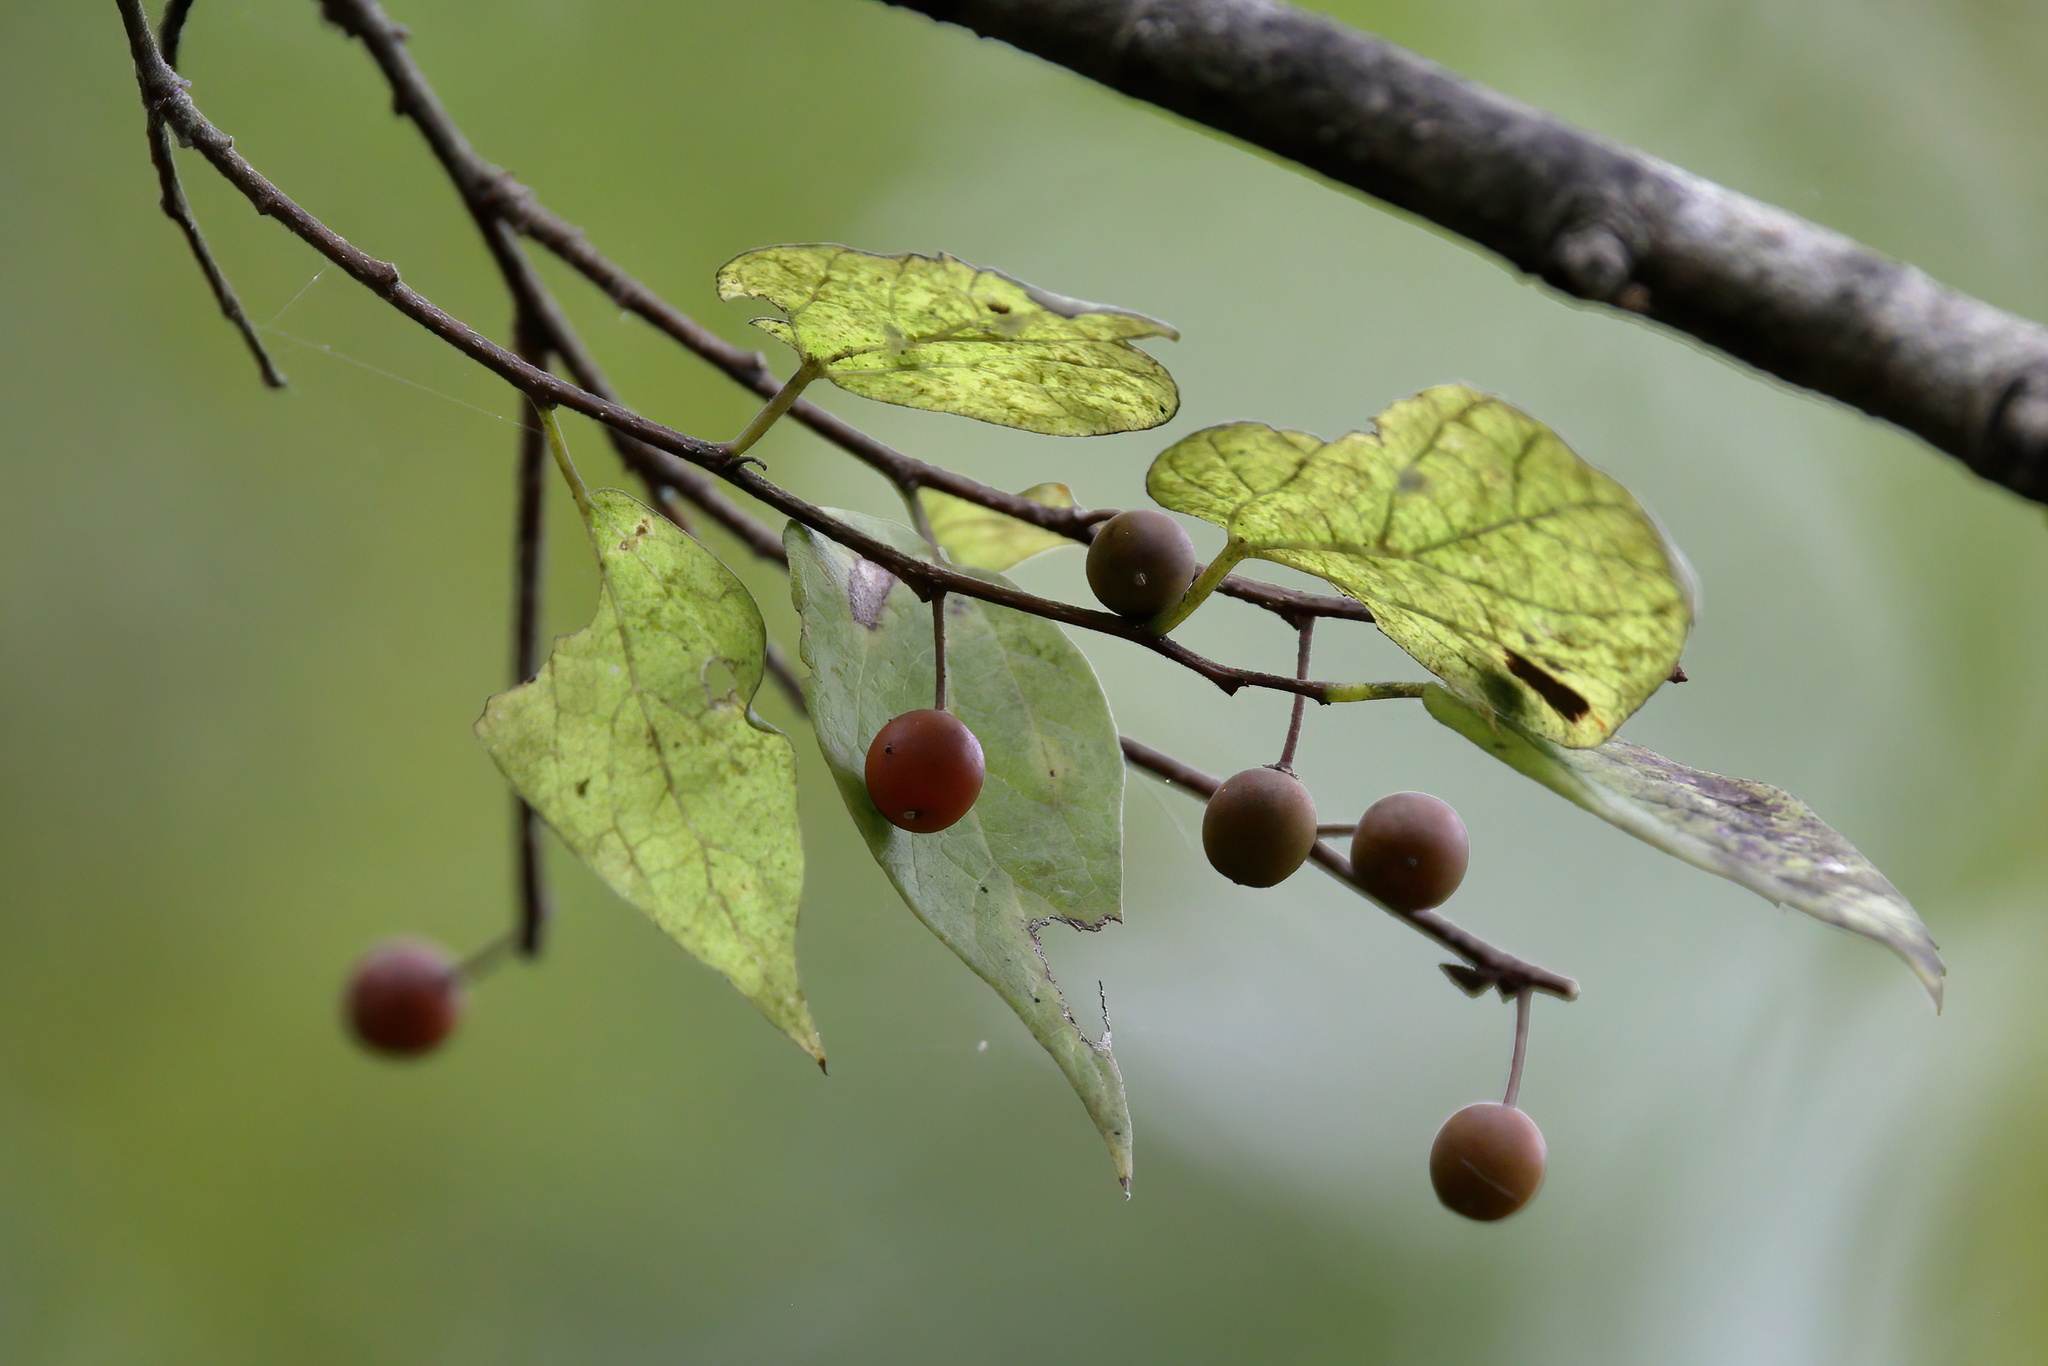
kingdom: Plantae
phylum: Tracheophyta
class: Magnoliopsida
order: Rosales
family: Cannabaceae
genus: Celtis
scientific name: Celtis laevigata
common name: Sugarberry
